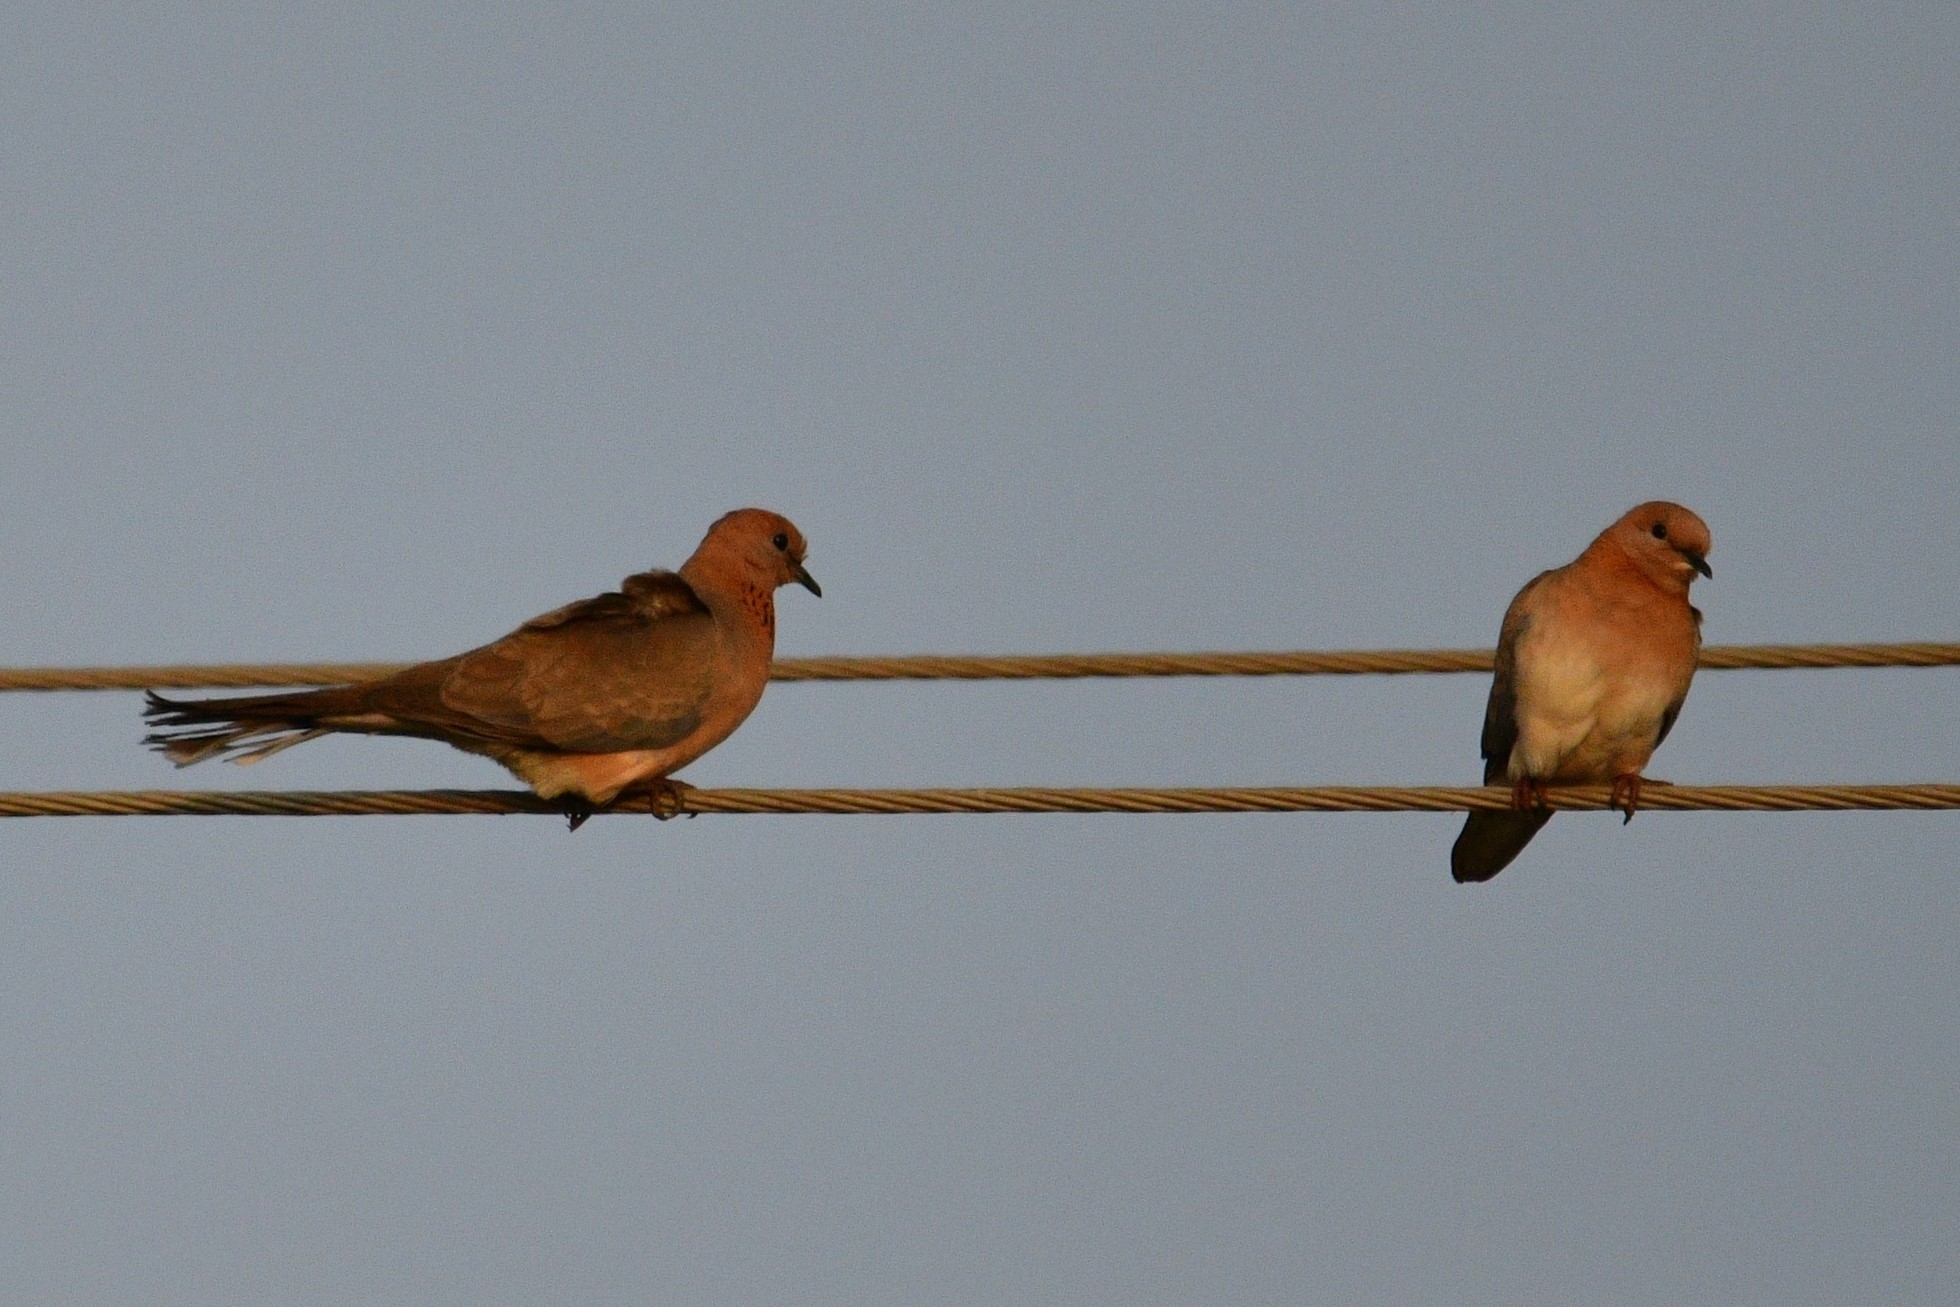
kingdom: Animalia
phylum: Chordata
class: Aves
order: Columbiformes
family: Columbidae
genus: Spilopelia
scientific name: Spilopelia senegalensis
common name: Laughing dove
